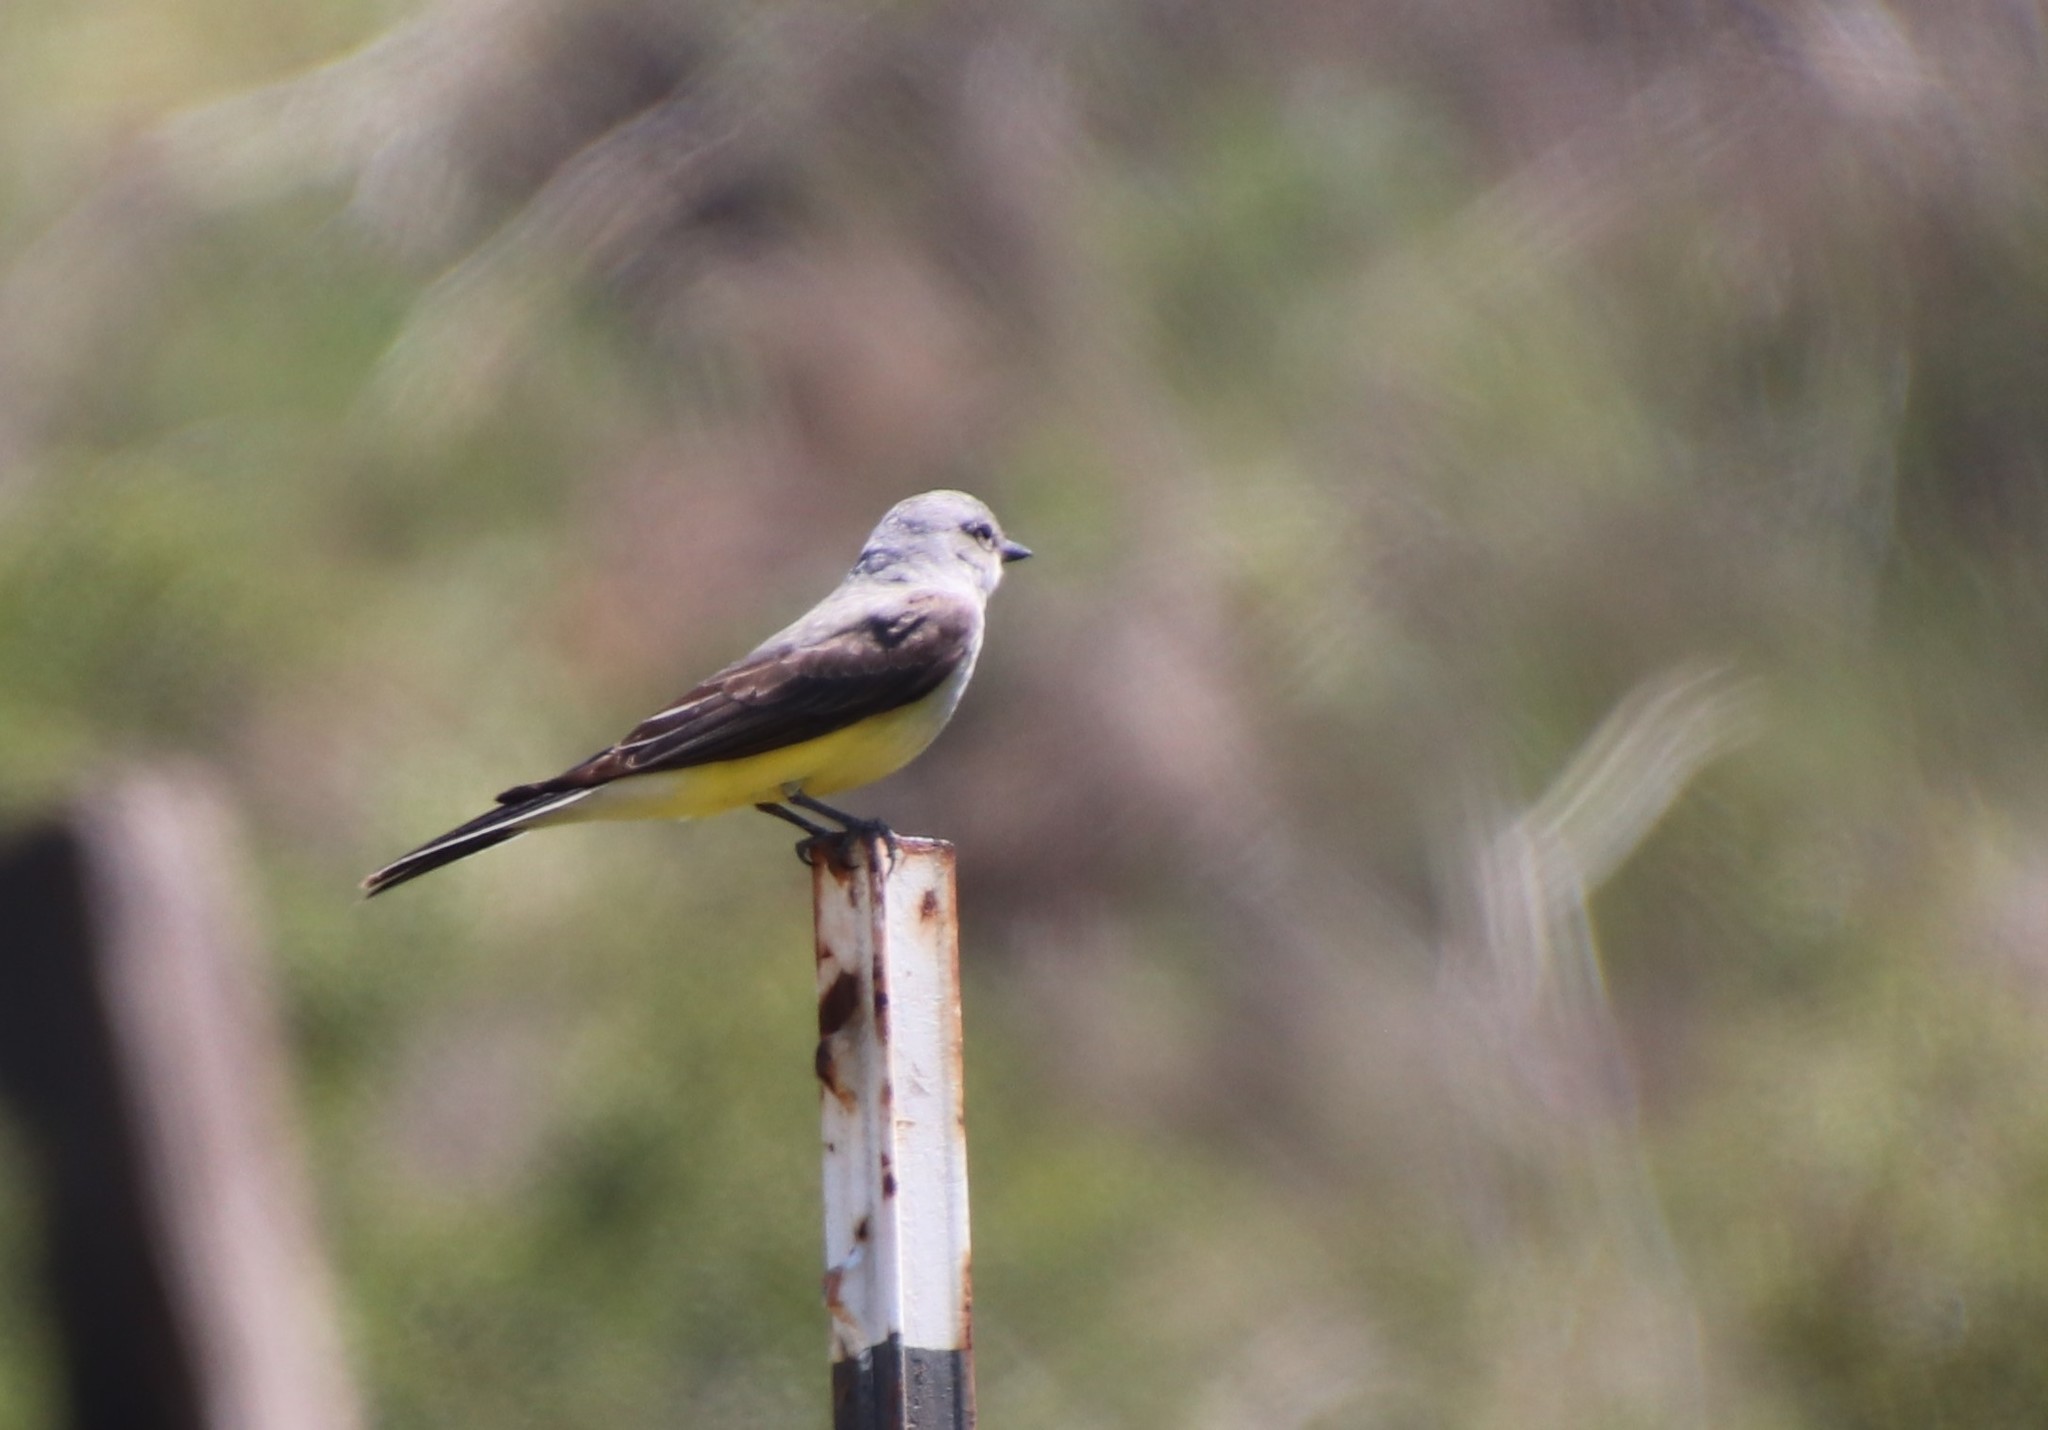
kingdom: Animalia
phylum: Chordata
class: Aves
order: Passeriformes
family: Tyrannidae
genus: Tyrannus
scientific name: Tyrannus verticalis
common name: Western kingbird
